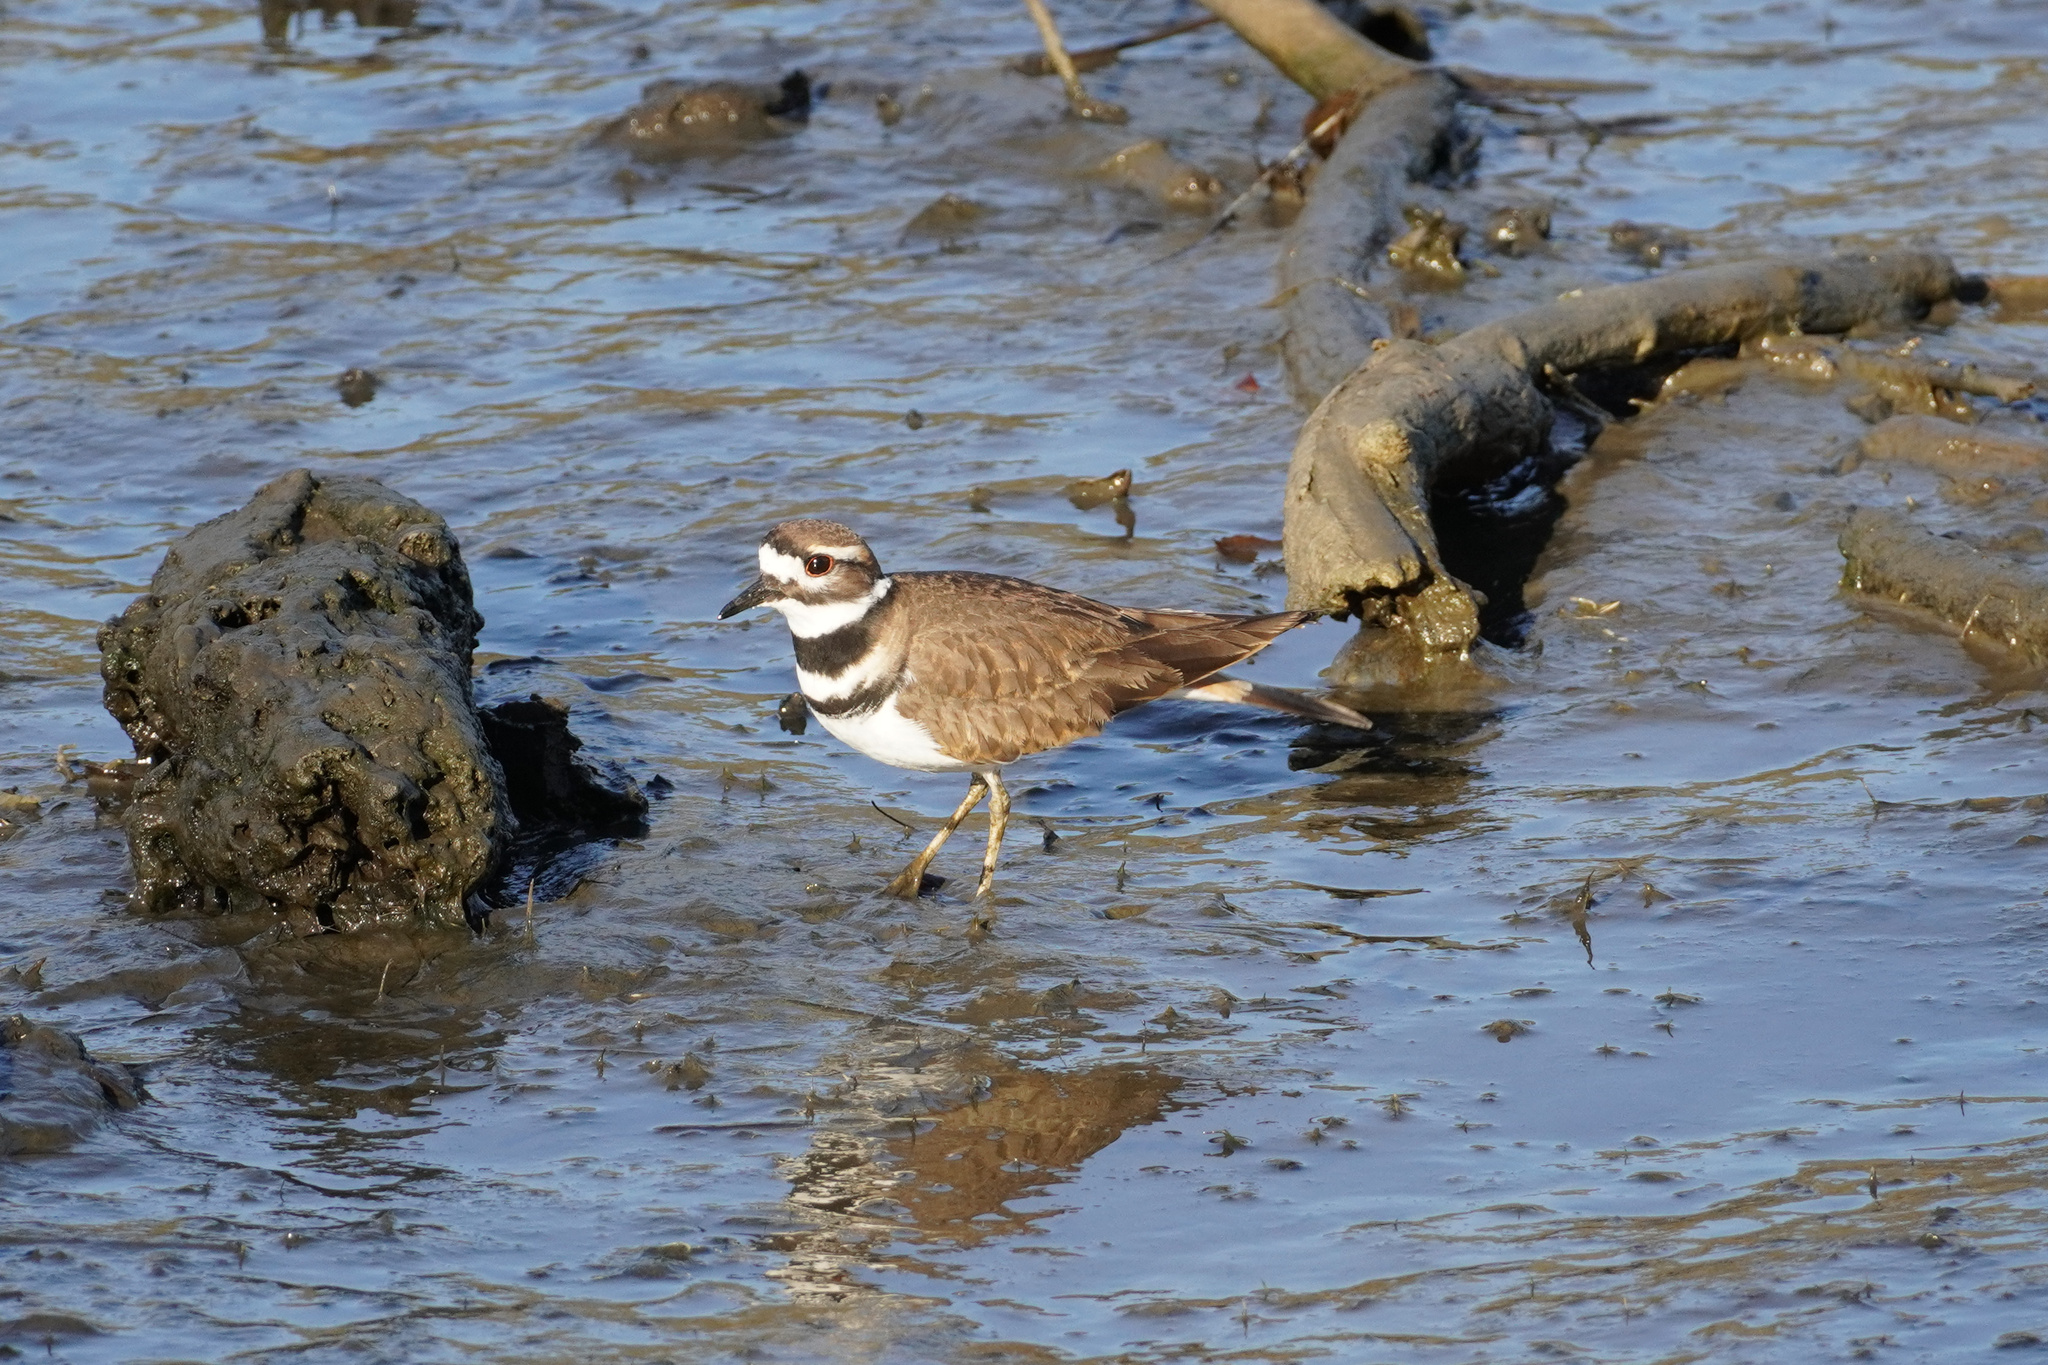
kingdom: Animalia
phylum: Chordata
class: Aves
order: Charadriiformes
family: Charadriidae
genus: Charadrius
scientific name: Charadrius vociferus
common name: Killdeer
